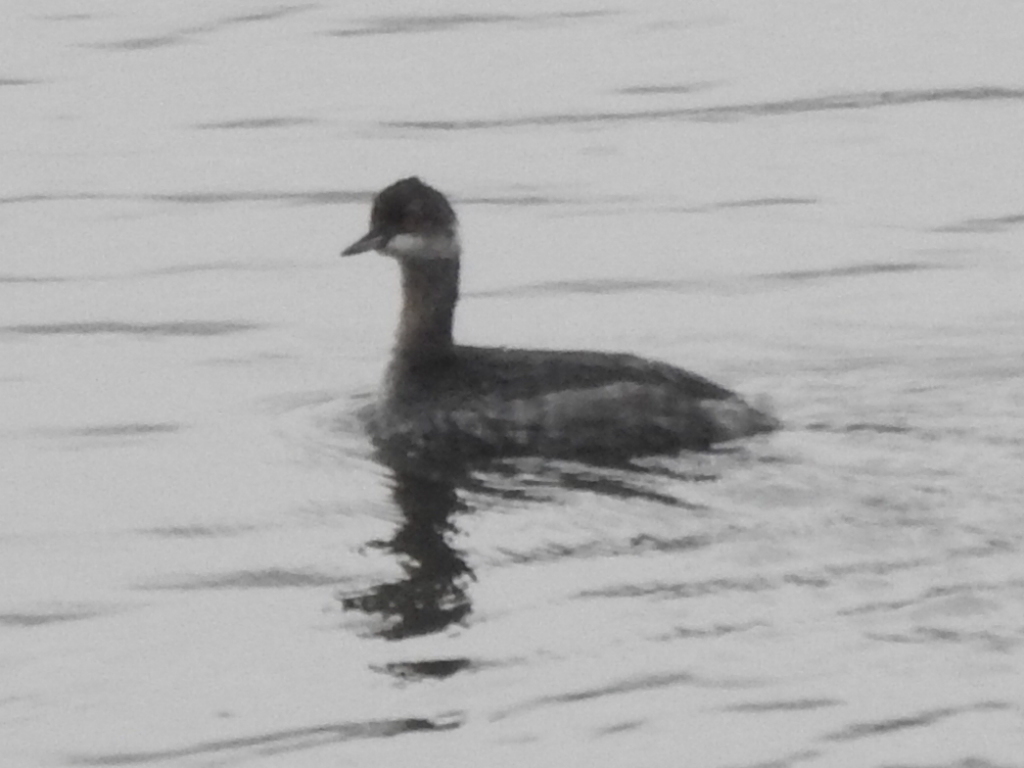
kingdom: Animalia
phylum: Chordata
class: Aves
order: Podicipediformes
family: Podicipedidae
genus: Podiceps
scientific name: Podiceps nigricollis
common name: Black-necked grebe
